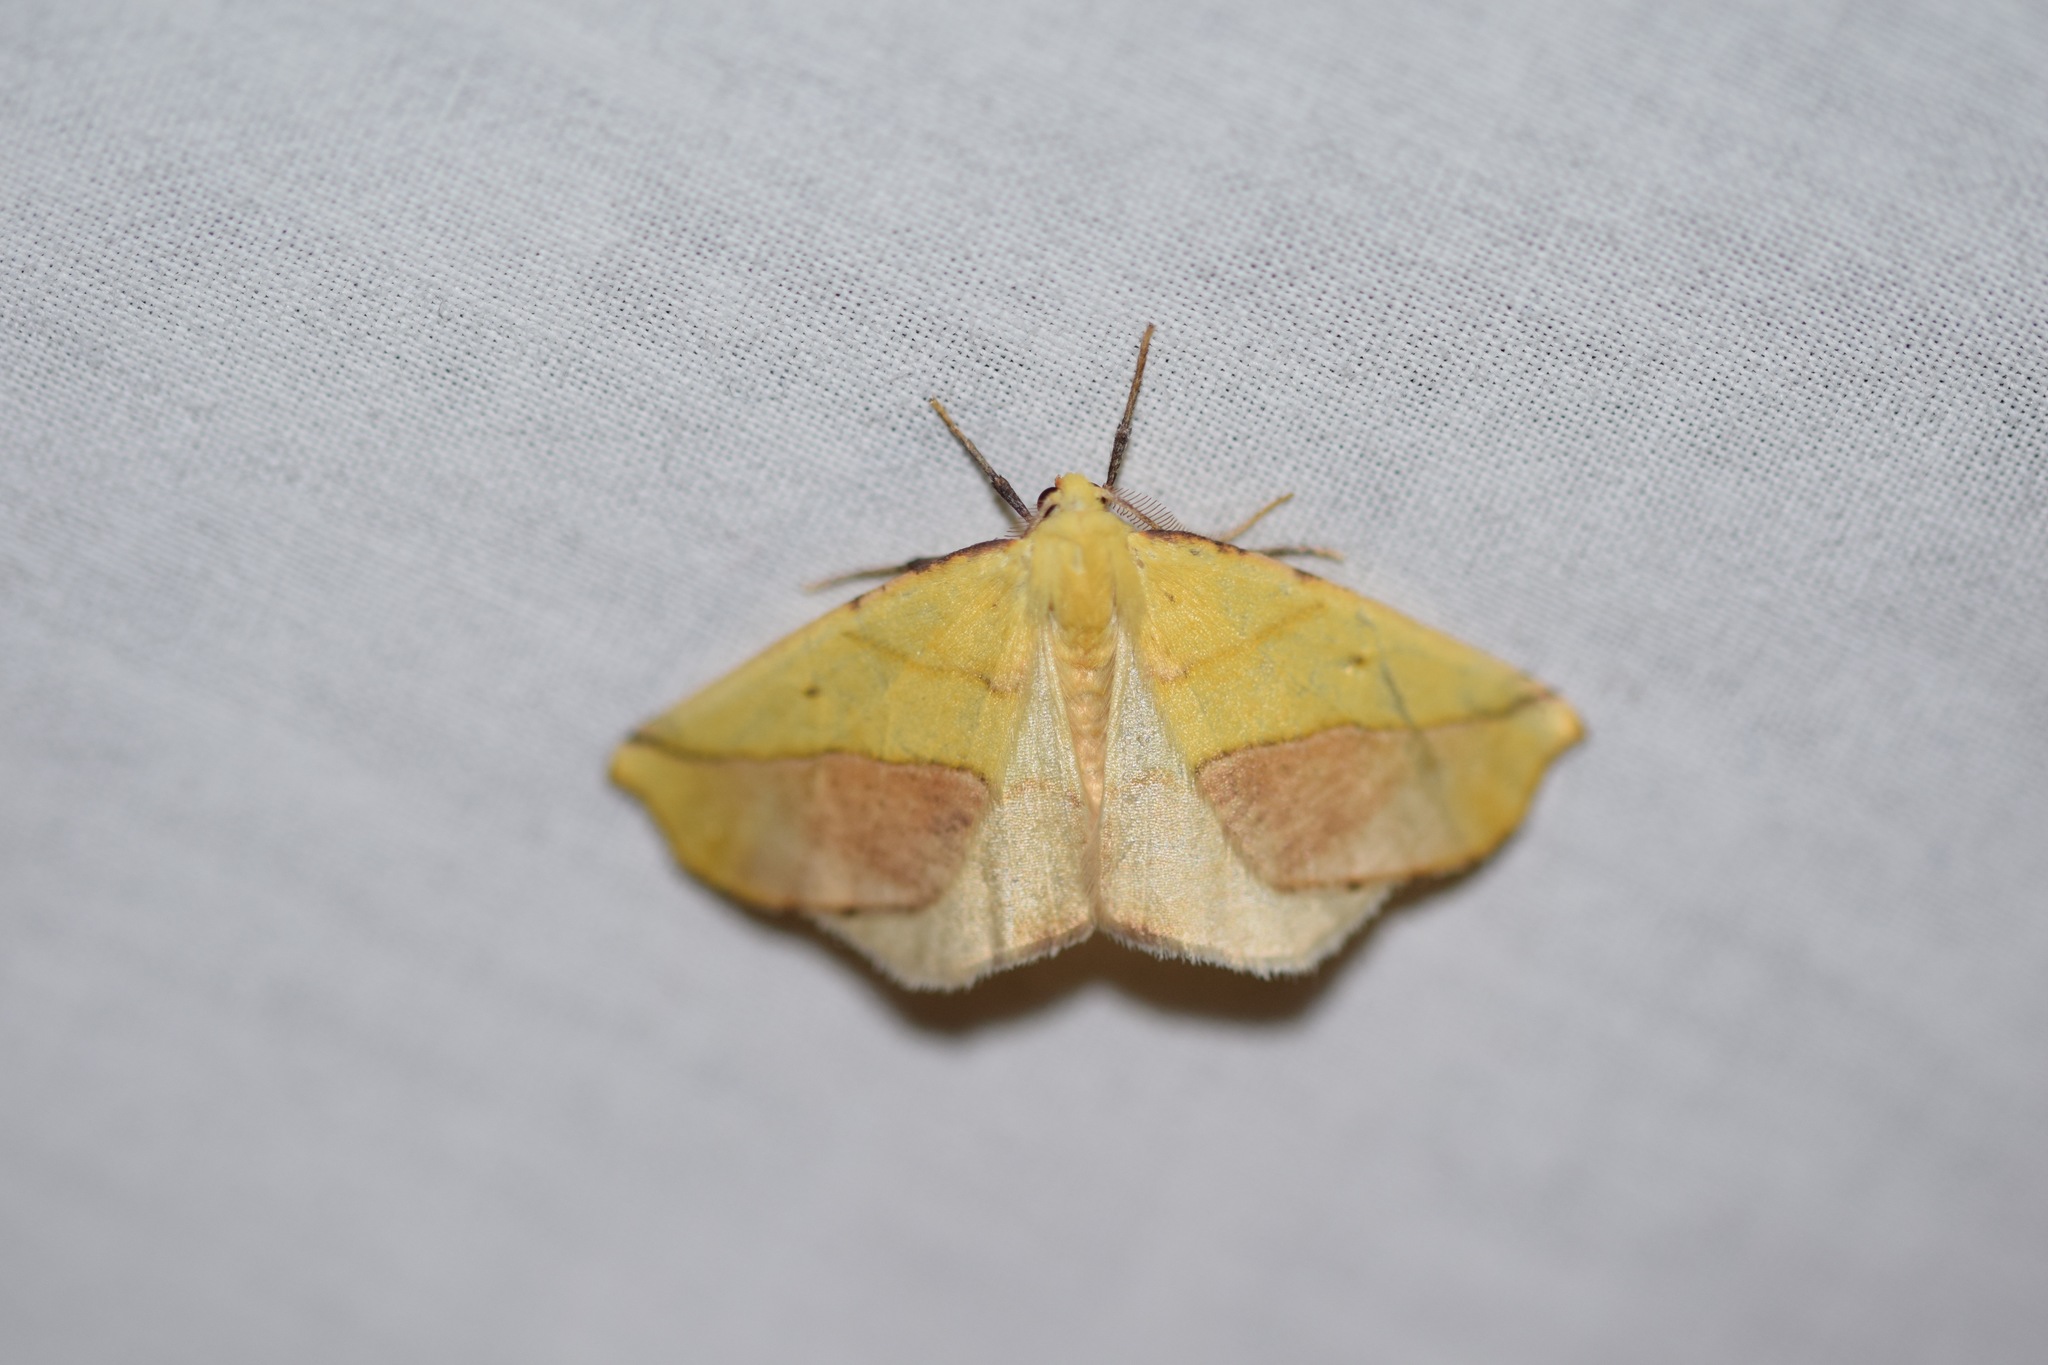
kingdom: Animalia
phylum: Arthropoda
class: Insecta
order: Lepidoptera
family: Geometridae
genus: Sicya
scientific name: Sicya macularia
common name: Sharp-lined yellow
